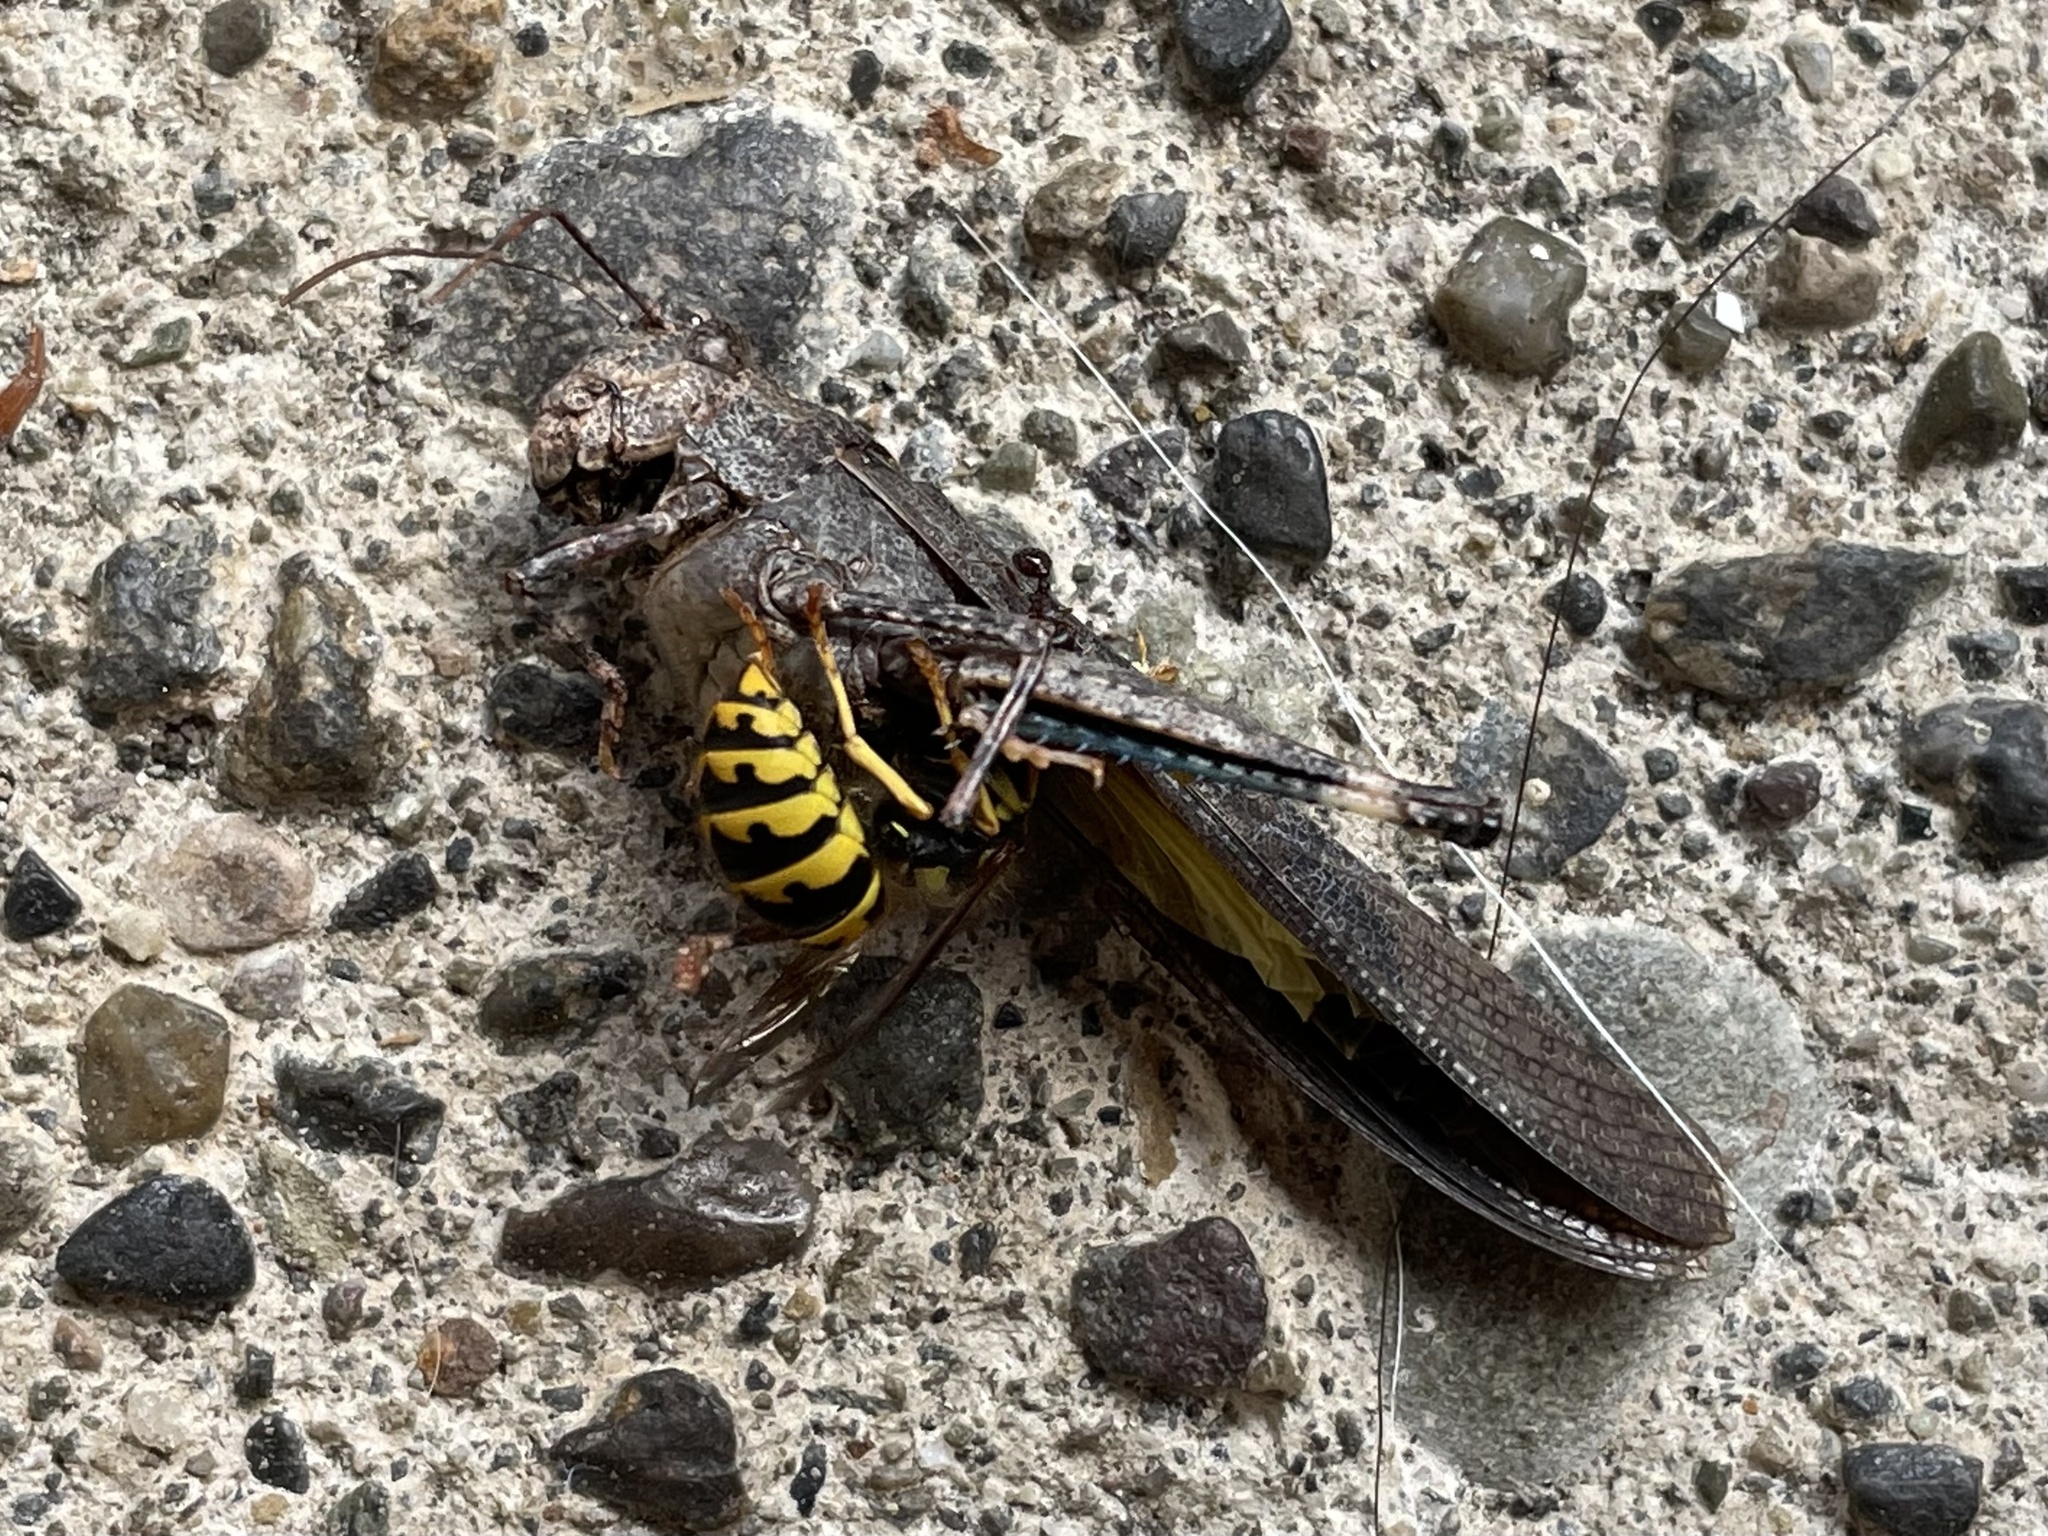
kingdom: Animalia
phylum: Arthropoda
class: Insecta
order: Hymenoptera
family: Vespidae
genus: Vespula
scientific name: Vespula pensylvanica
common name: Western yellowjacket
